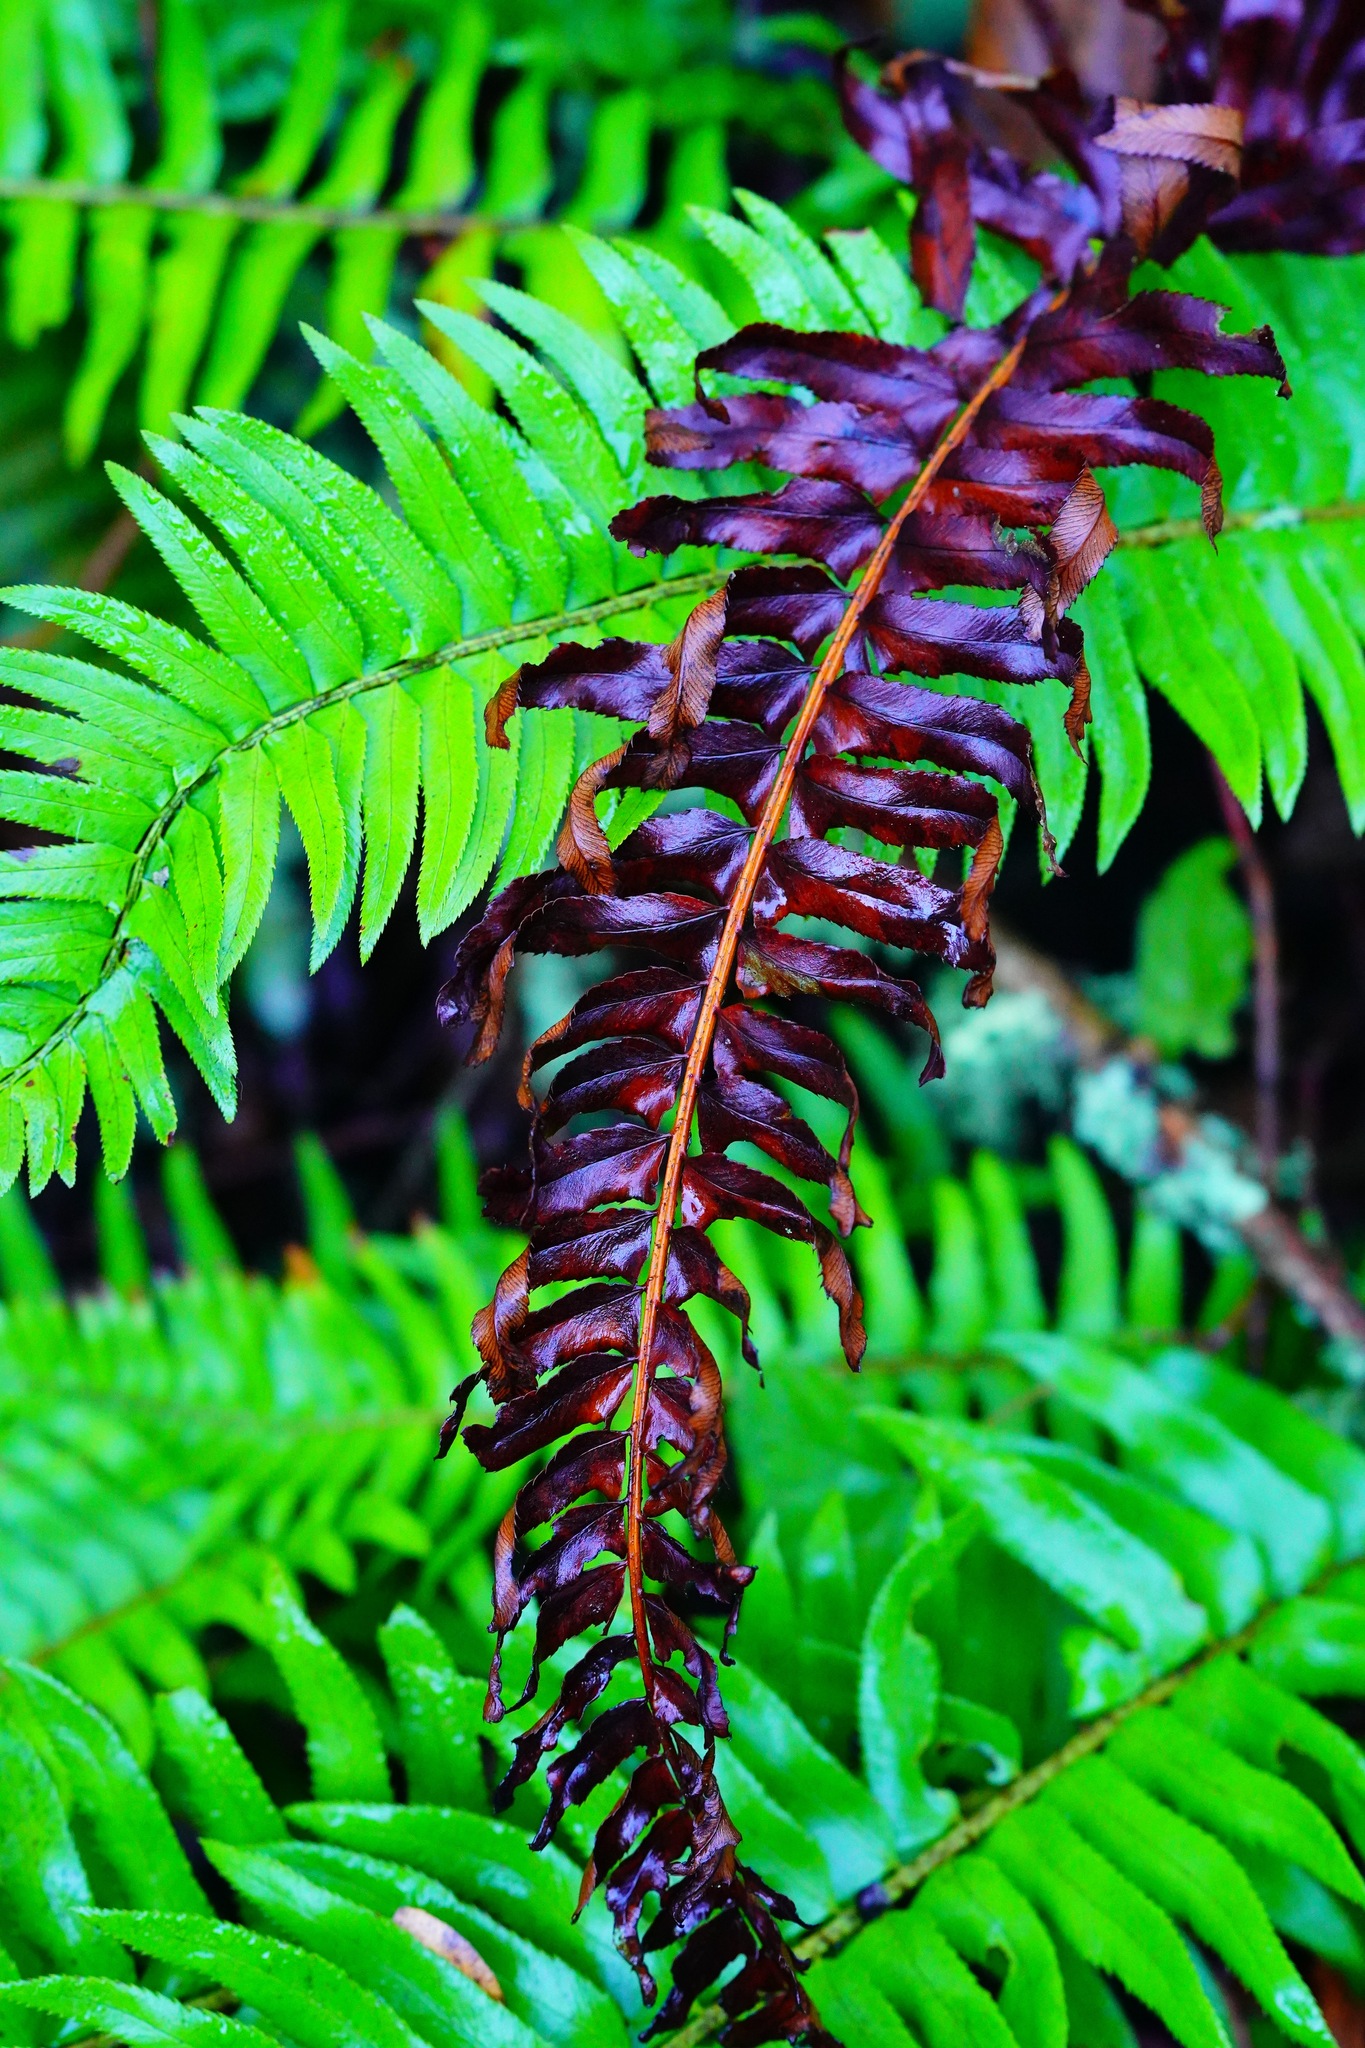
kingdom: Plantae
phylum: Tracheophyta
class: Polypodiopsida
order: Polypodiales
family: Dryopteridaceae
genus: Polystichum
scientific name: Polystichum munitum
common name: Western sword-fern
